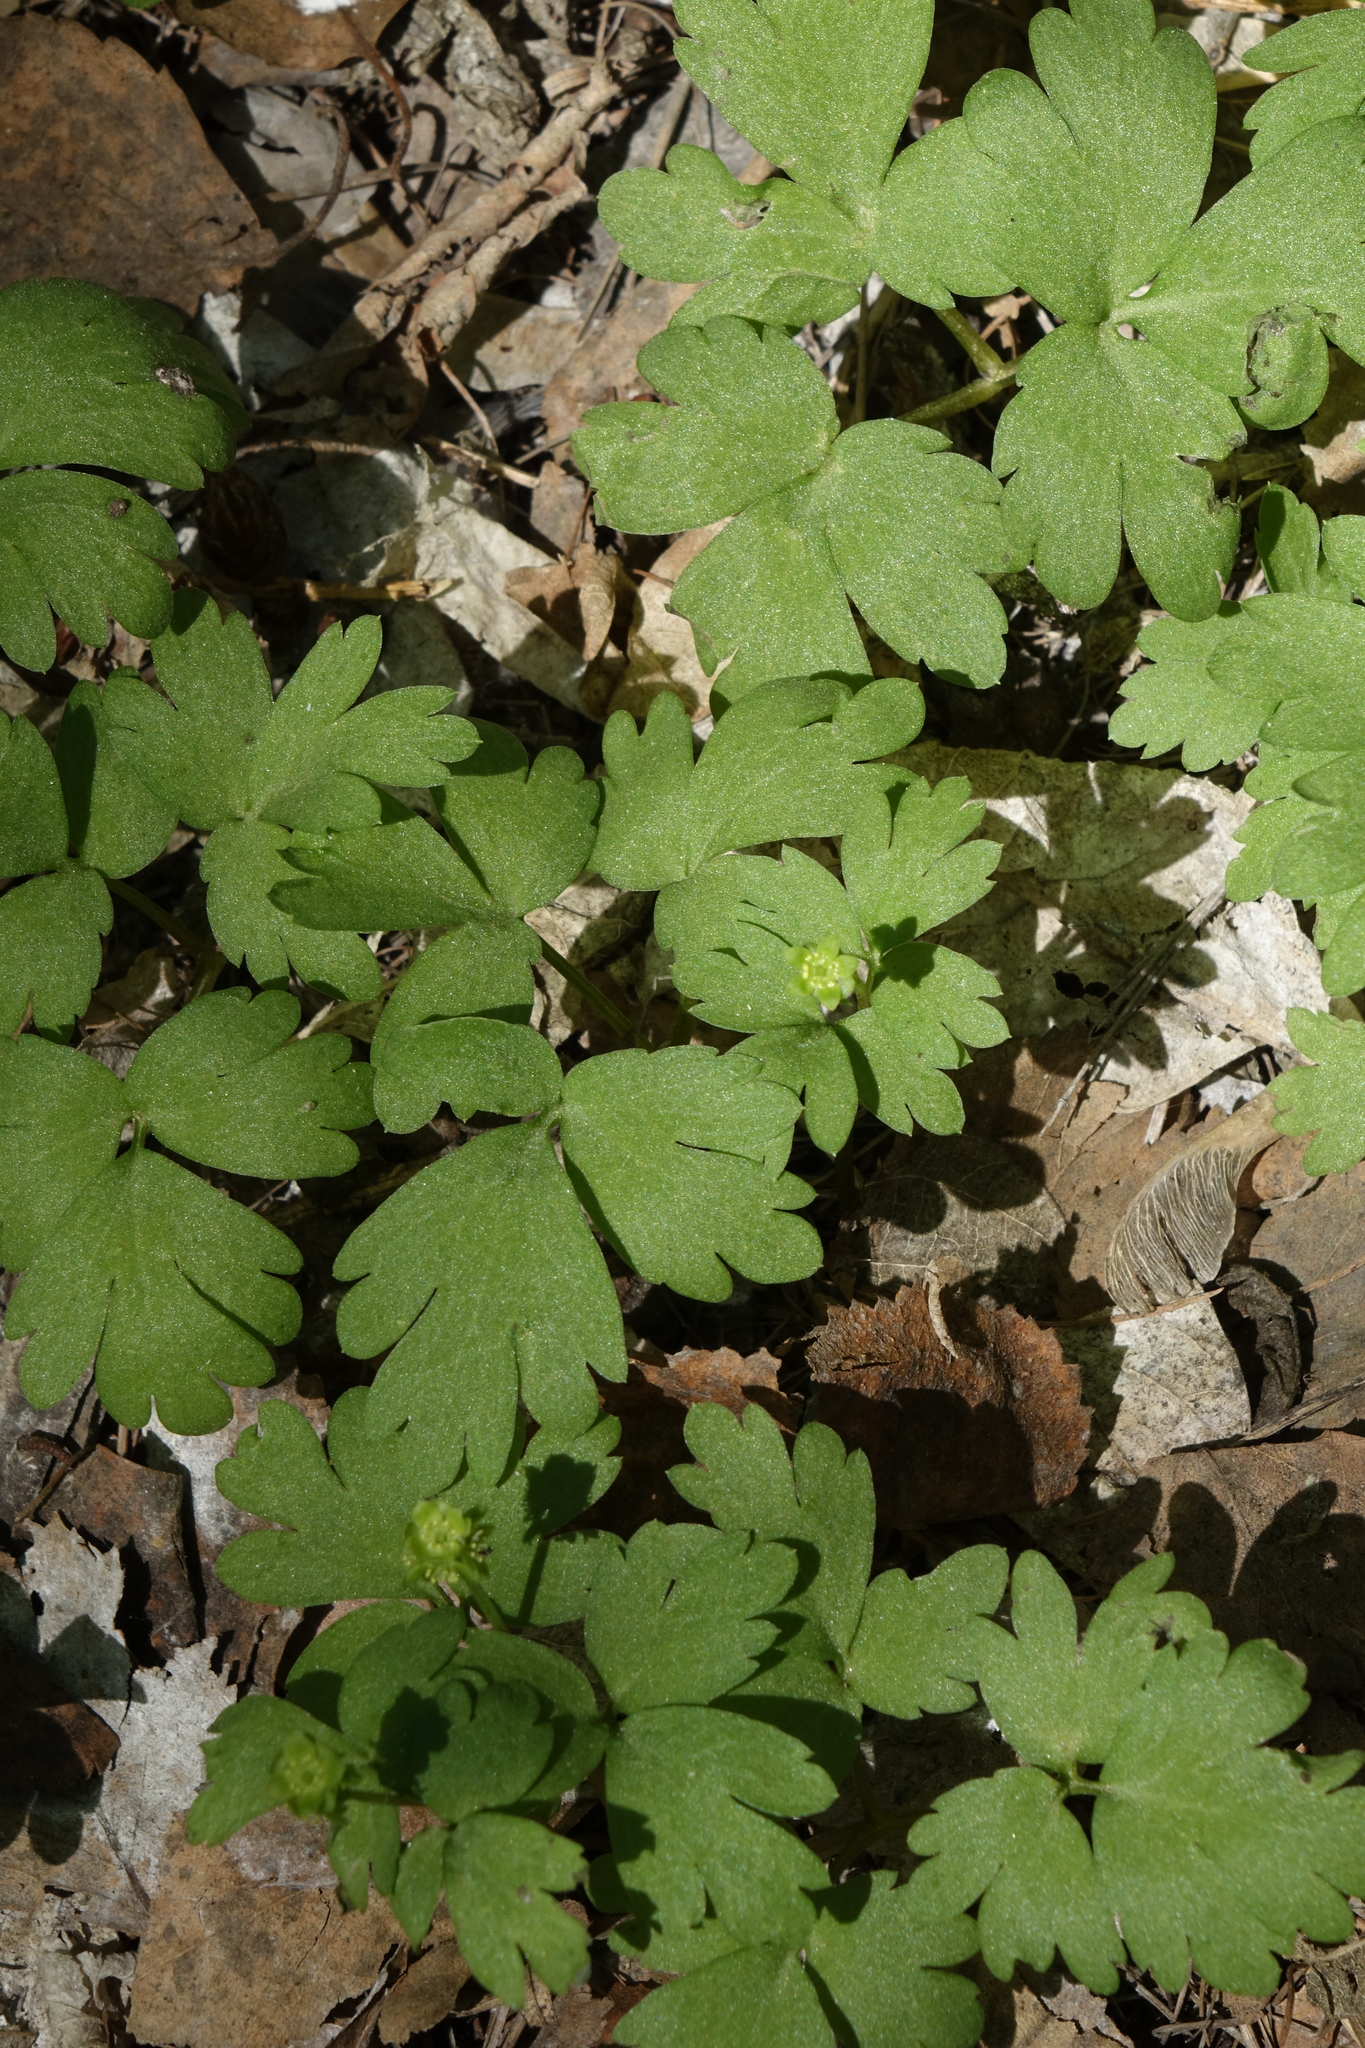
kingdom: Plantae
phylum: Tracheophyta
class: Magnoliopsida
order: Dipsacales
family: Viburnaceae
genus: Adoxa
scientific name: Adoxa moschatellina
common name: Moschatel
